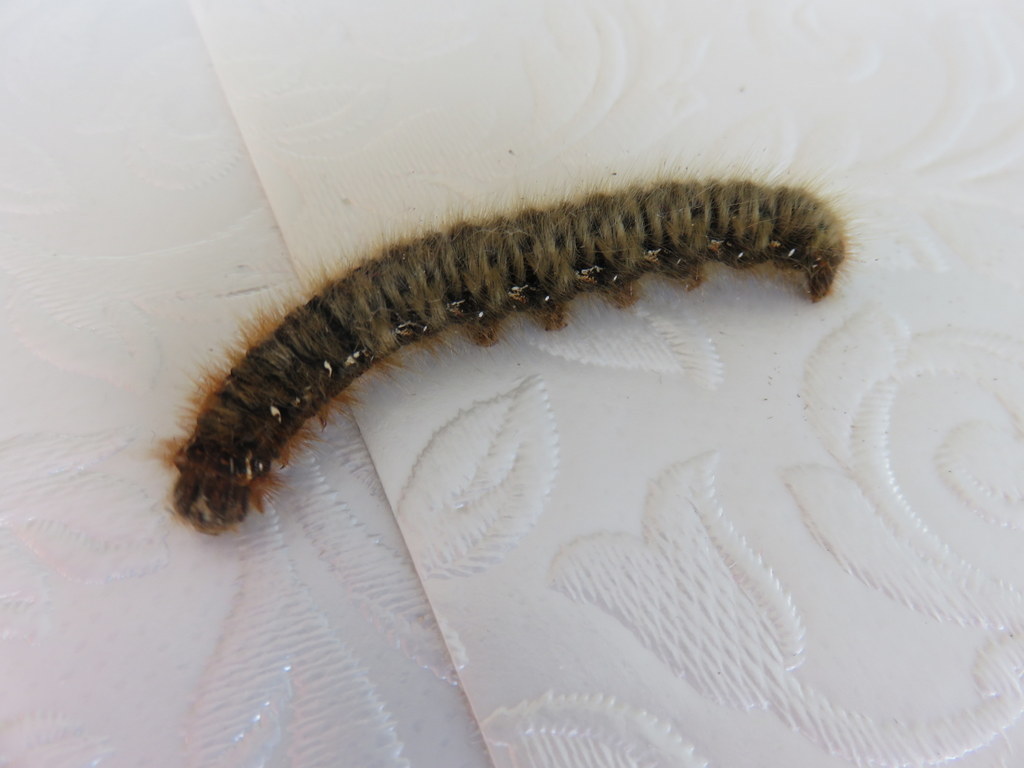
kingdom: Animalia
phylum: Arthropoda
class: Insecta
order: Lepidoptera
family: Lasiocampidae
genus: Lasiocampa
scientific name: Lasiocampa quercus
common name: Oak eggar
